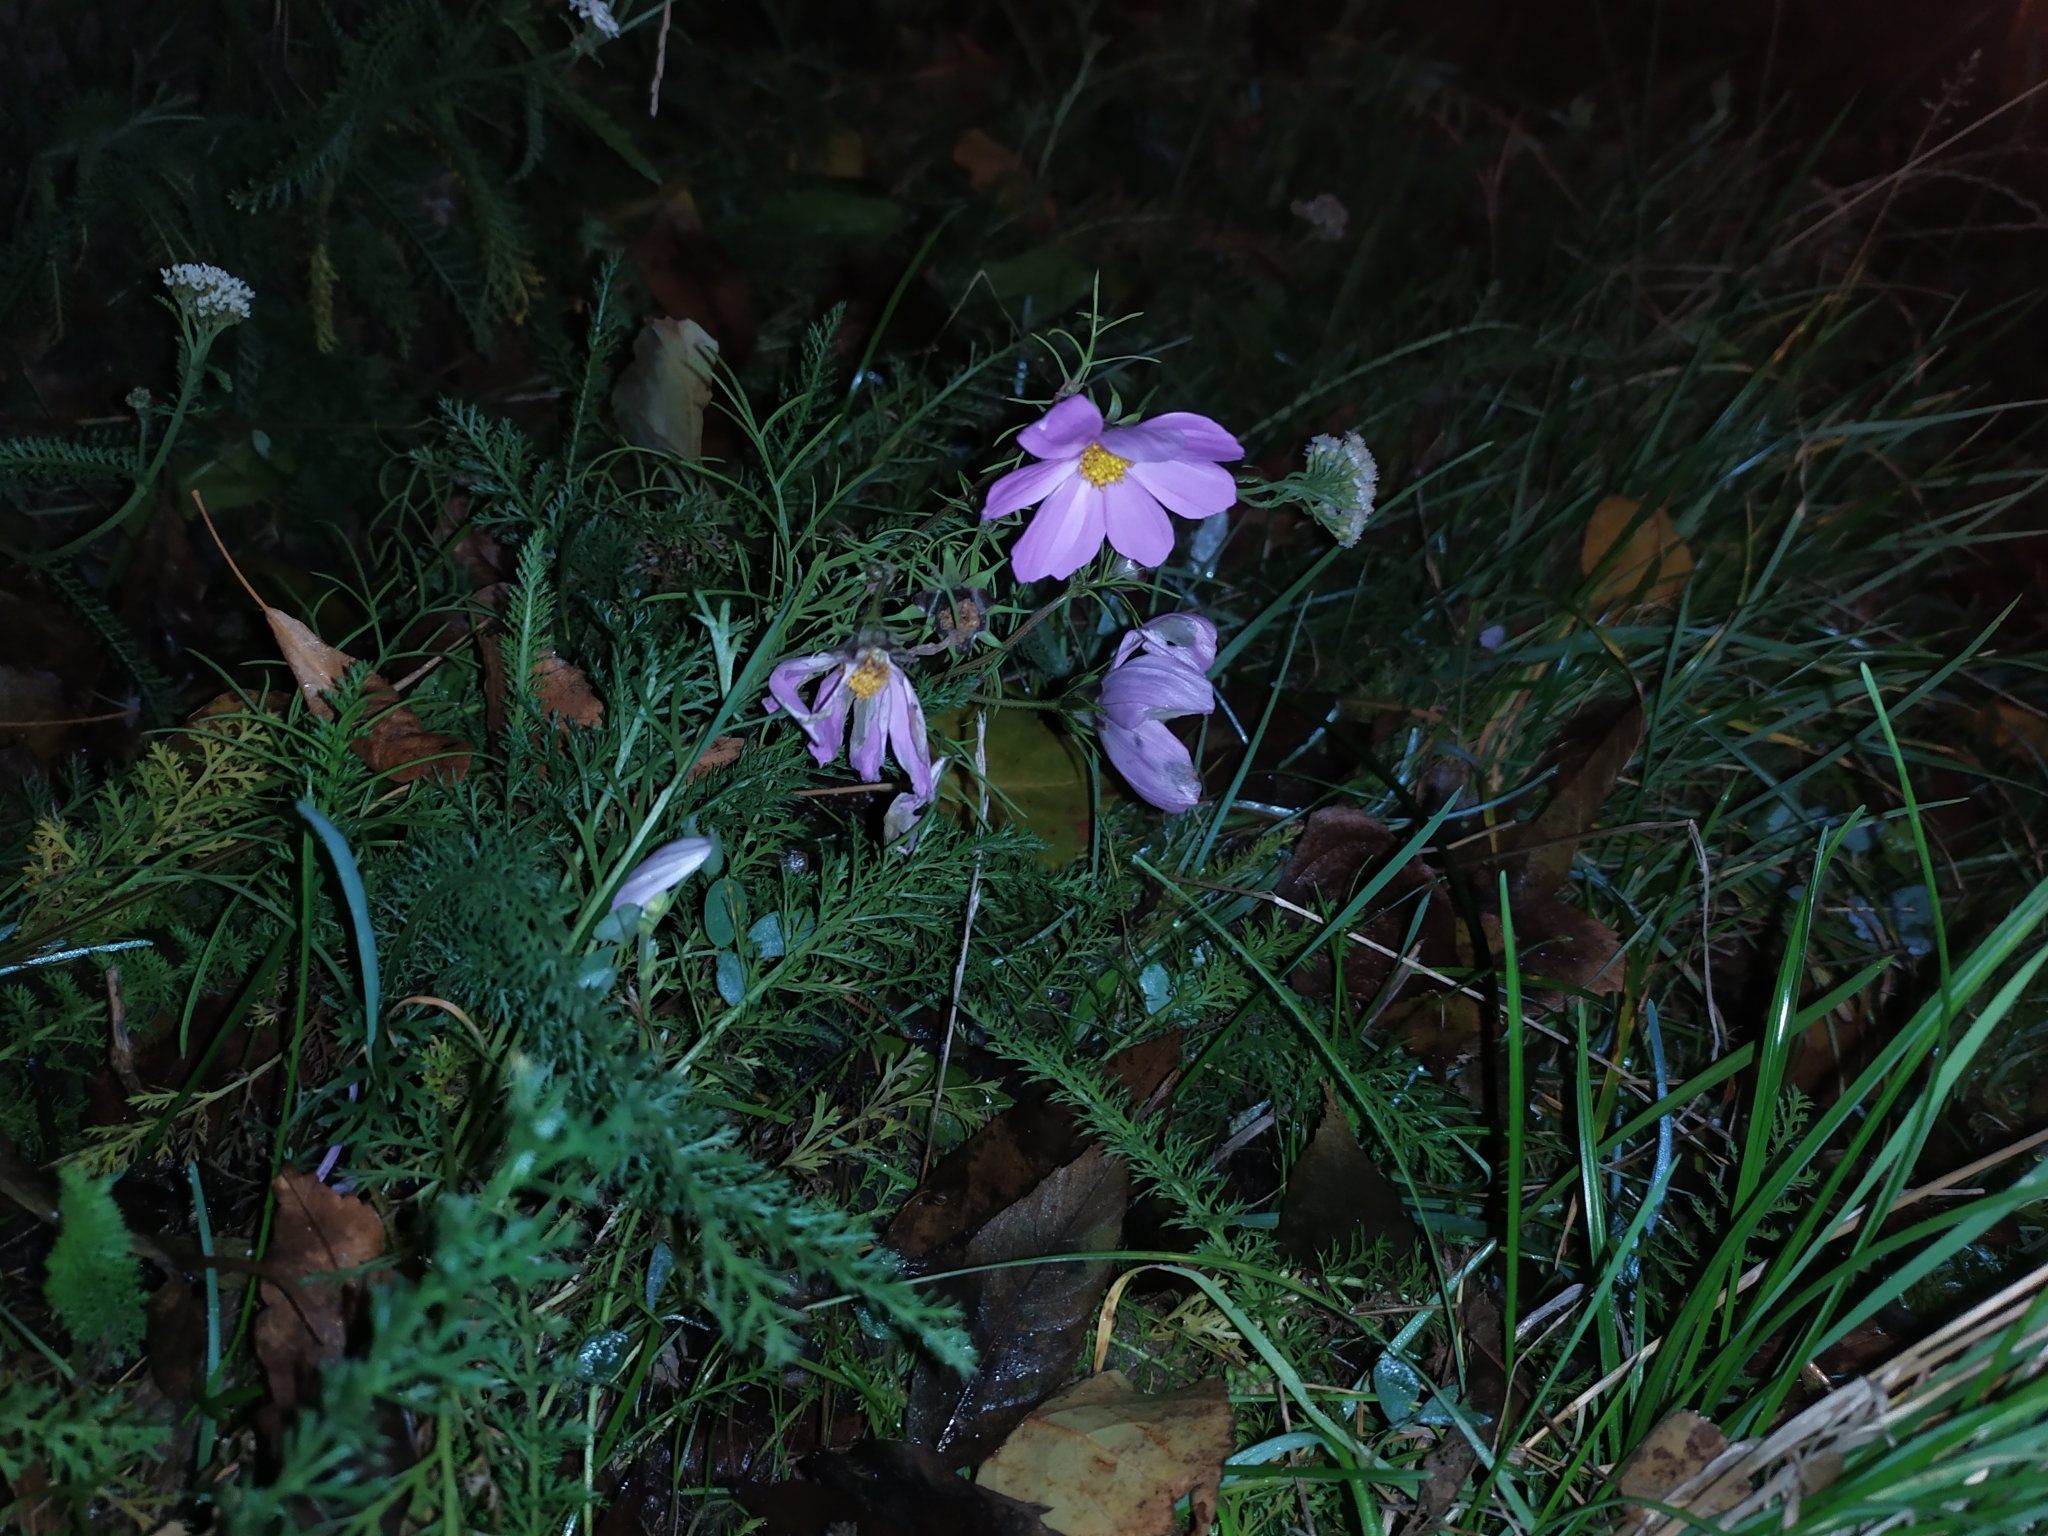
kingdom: Plantae
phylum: Tracheophyta
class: Magnoliopsida
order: Asterales
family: Asteraceae
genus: Cosmos
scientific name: Cosmos bipinnatus
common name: Garden cosmos
